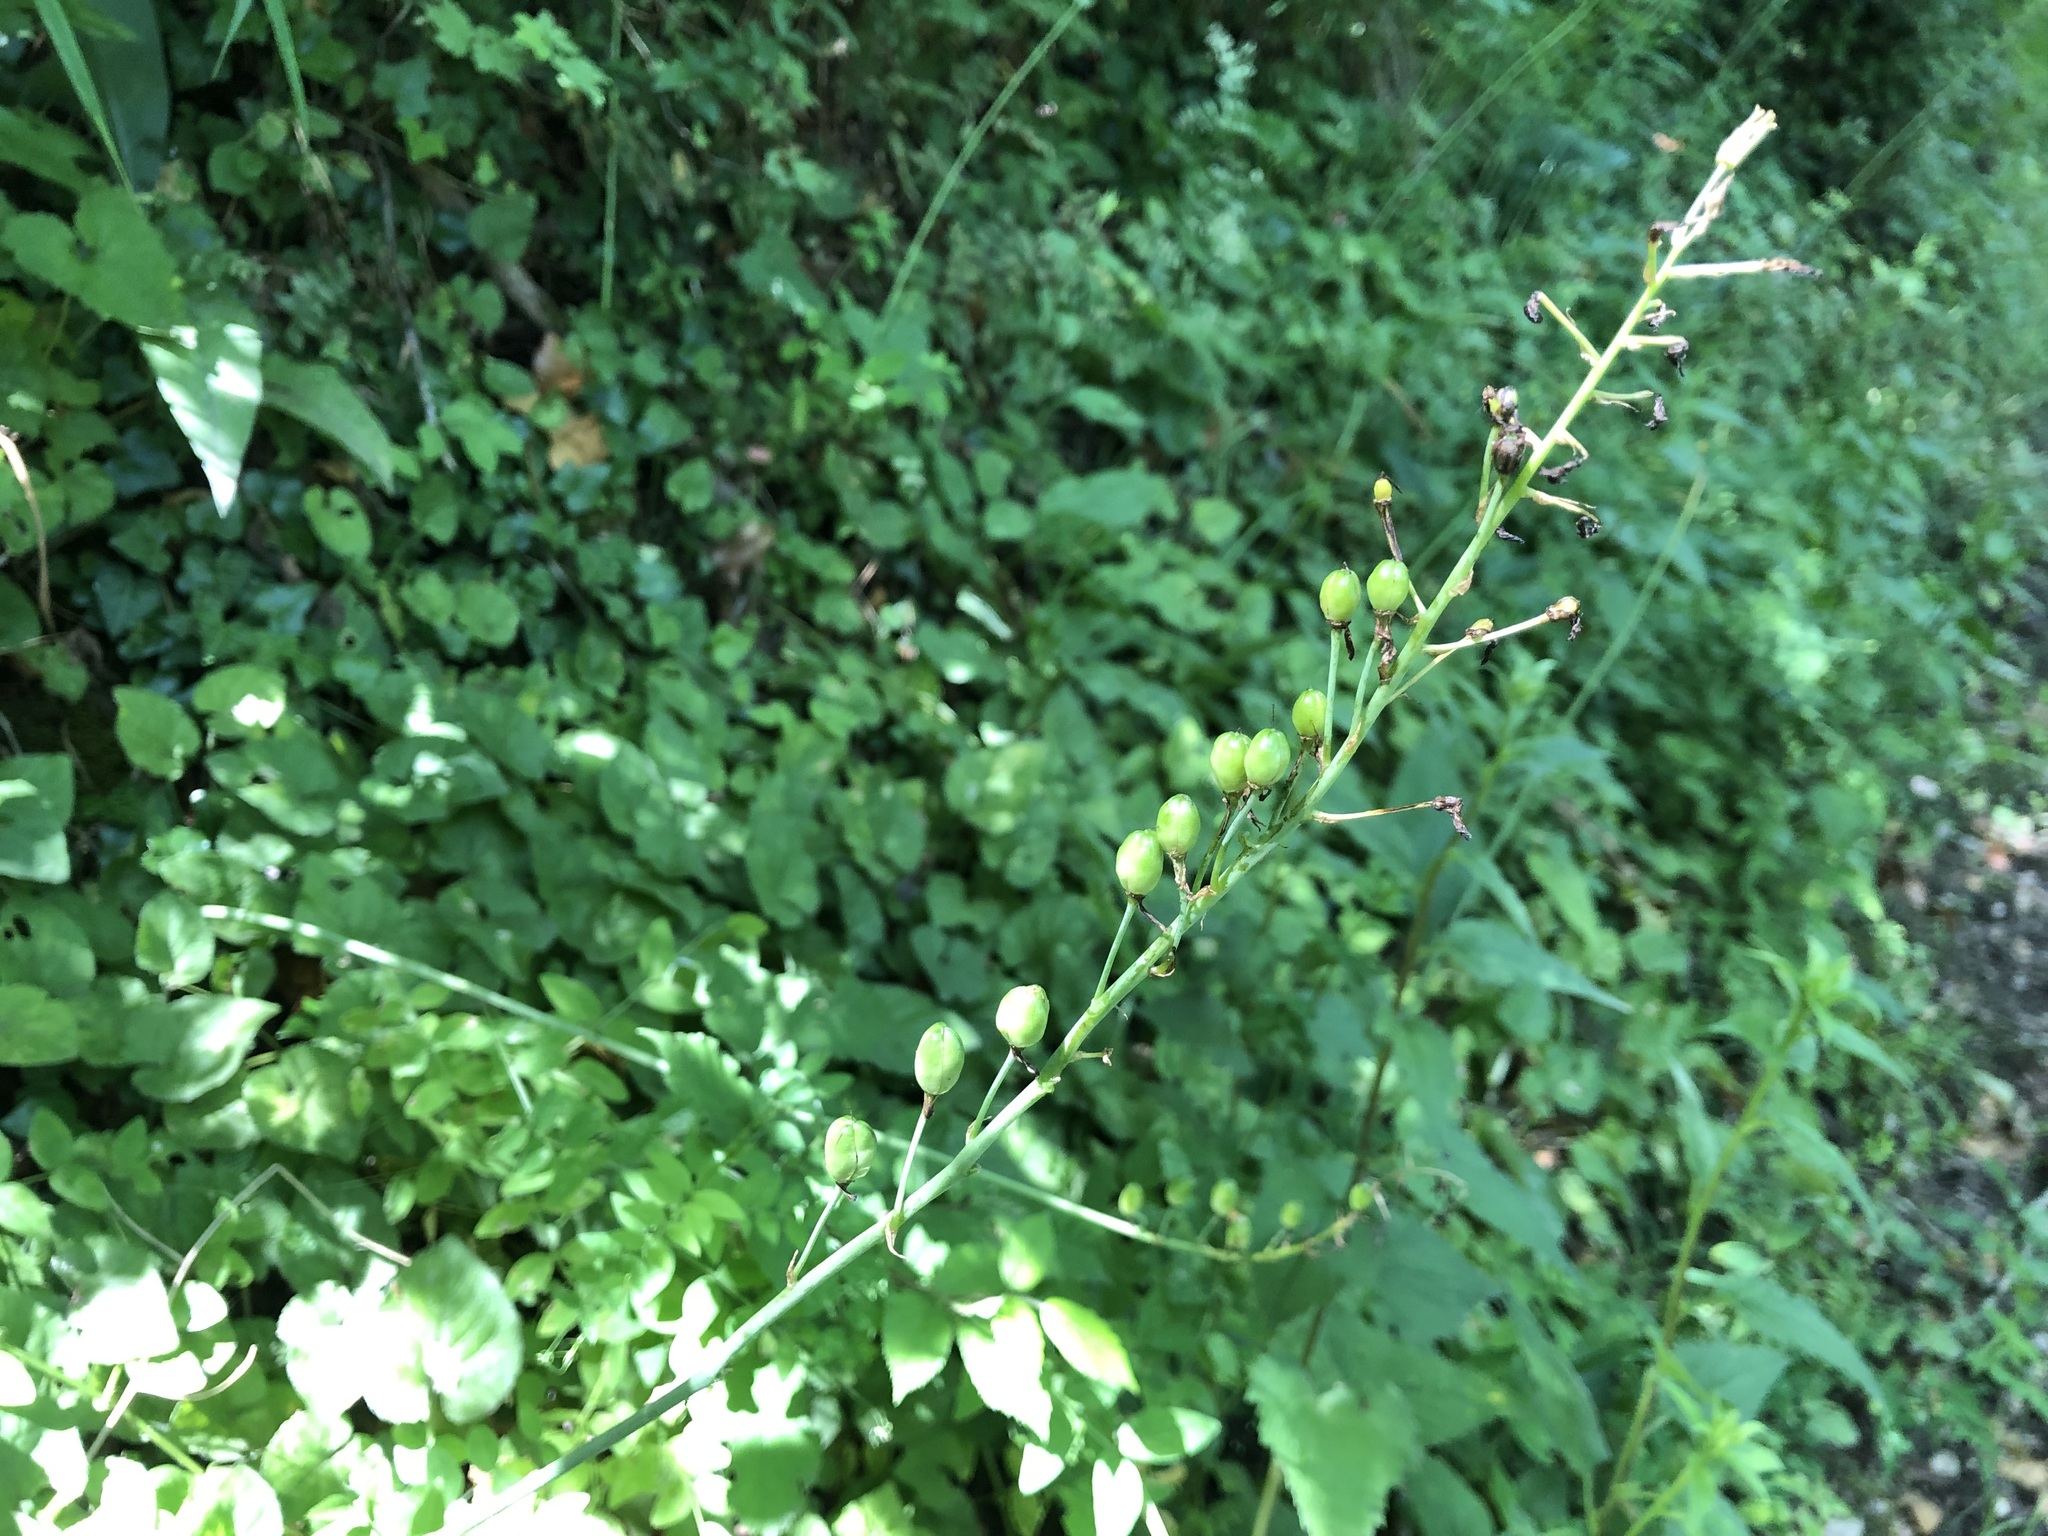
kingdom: Plantae
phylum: Tracheophyta
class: Liliopsida
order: Asparagales
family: Asparagaceae
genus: Ornithogalum
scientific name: Ornithogalum pyrenaicum
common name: Spiked star-of-bethlehem
